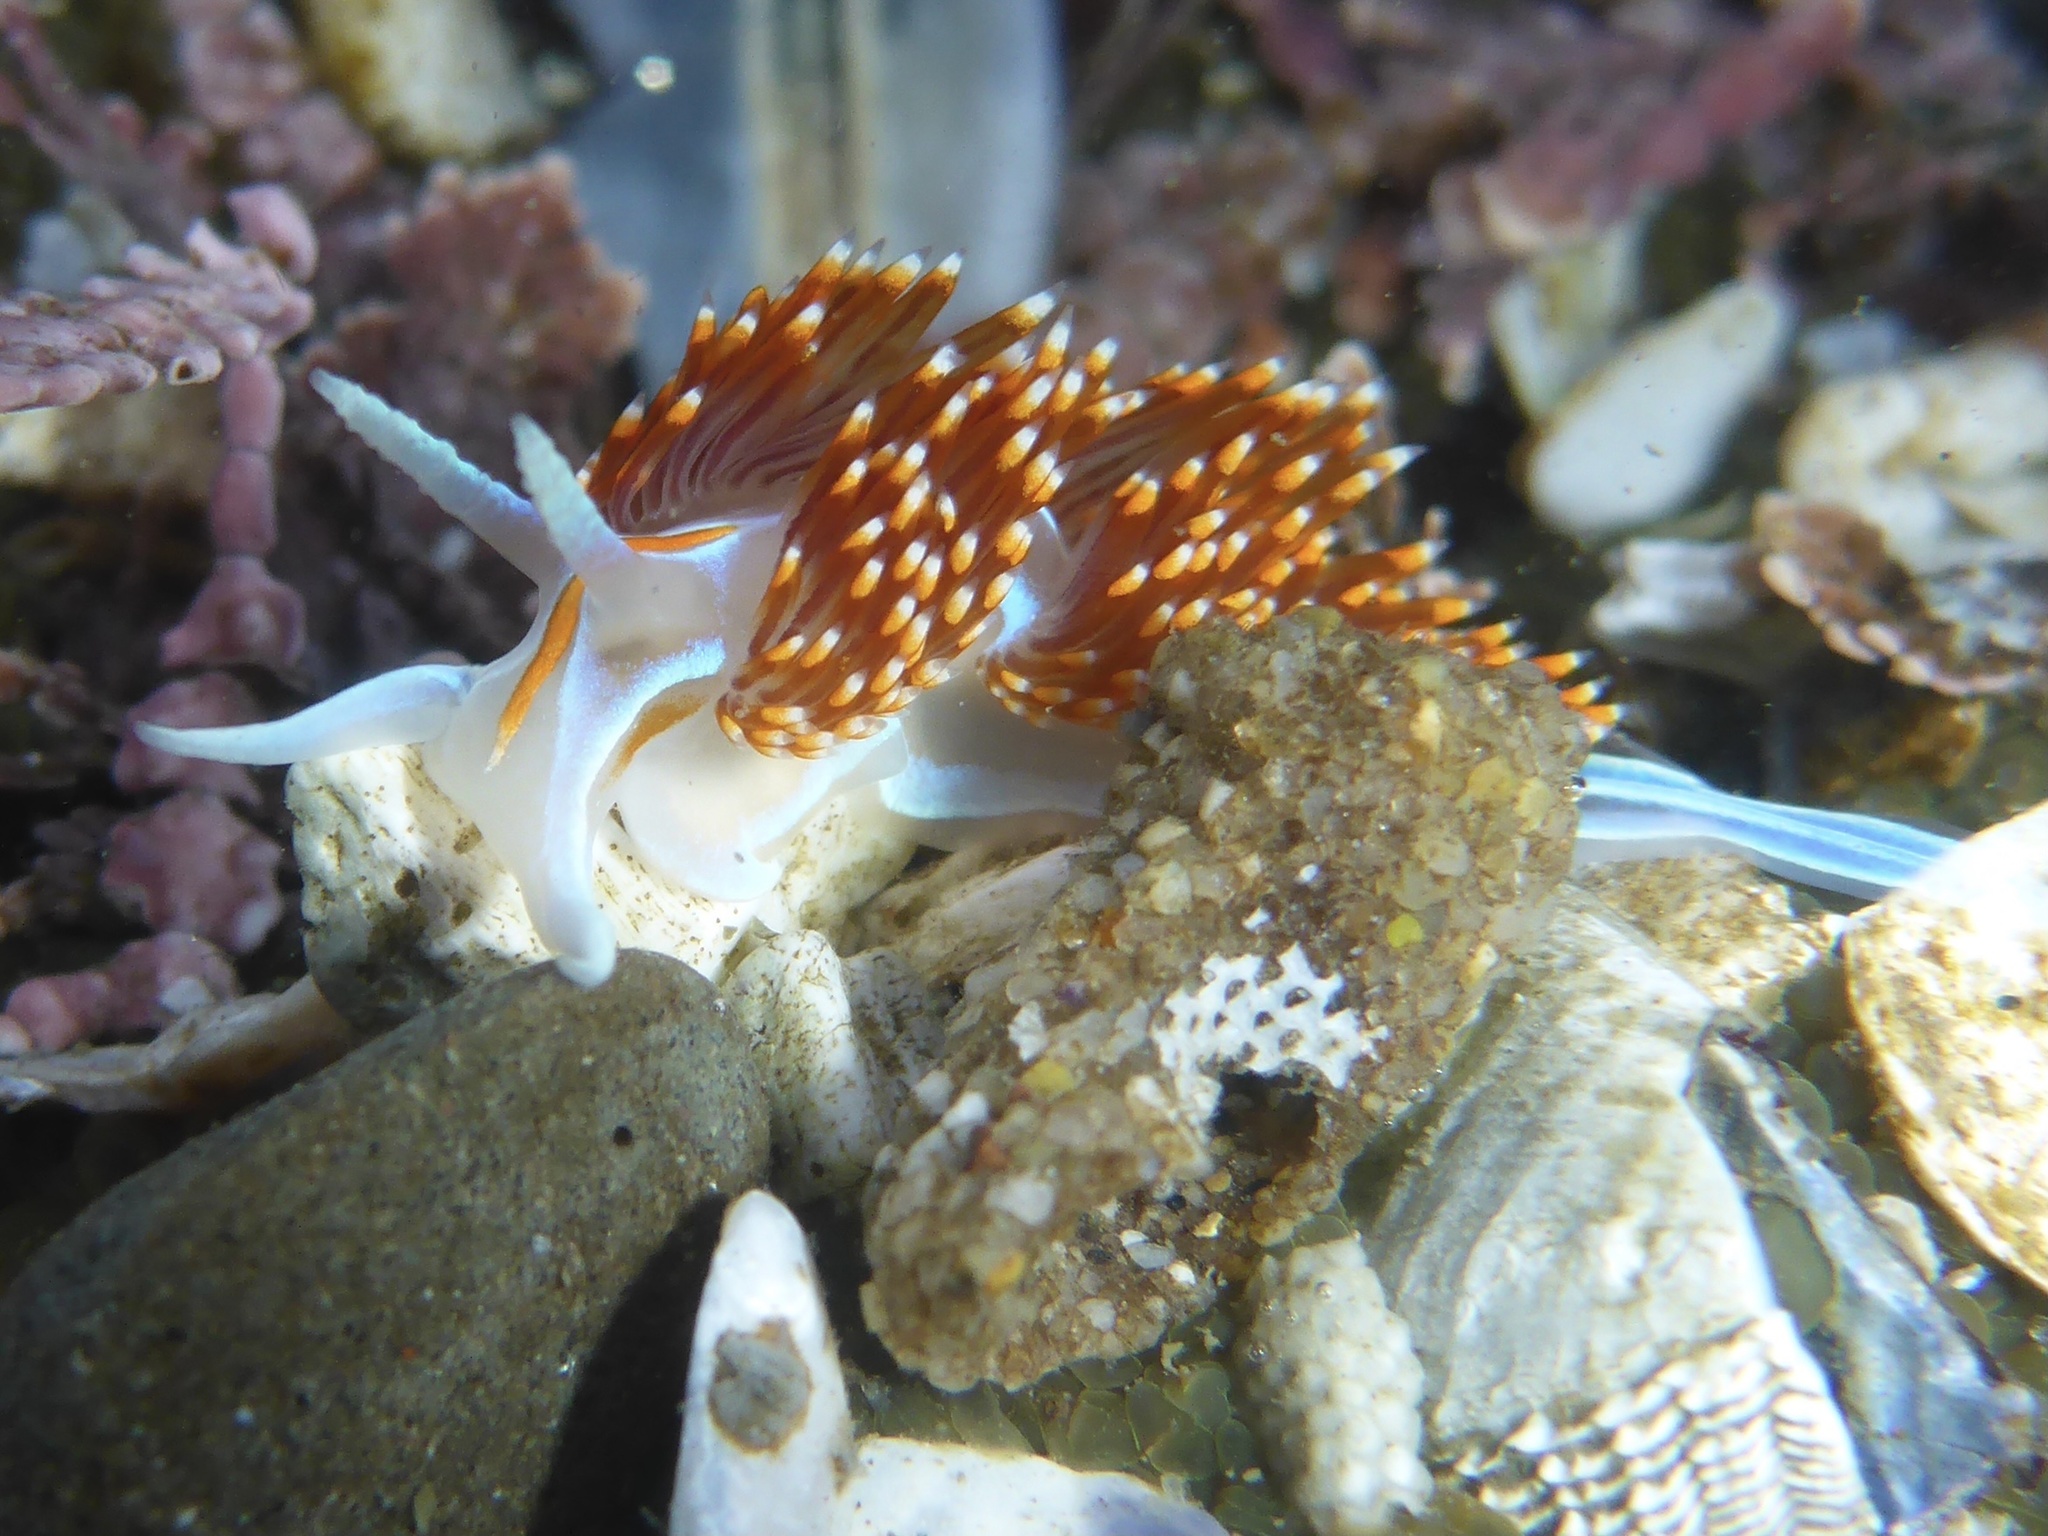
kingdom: Animalia
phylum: Mollusca
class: Gastropoda
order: Nudibranchia
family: Myrrhinidae
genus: Hermissenda
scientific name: Hermissenda opalescens
